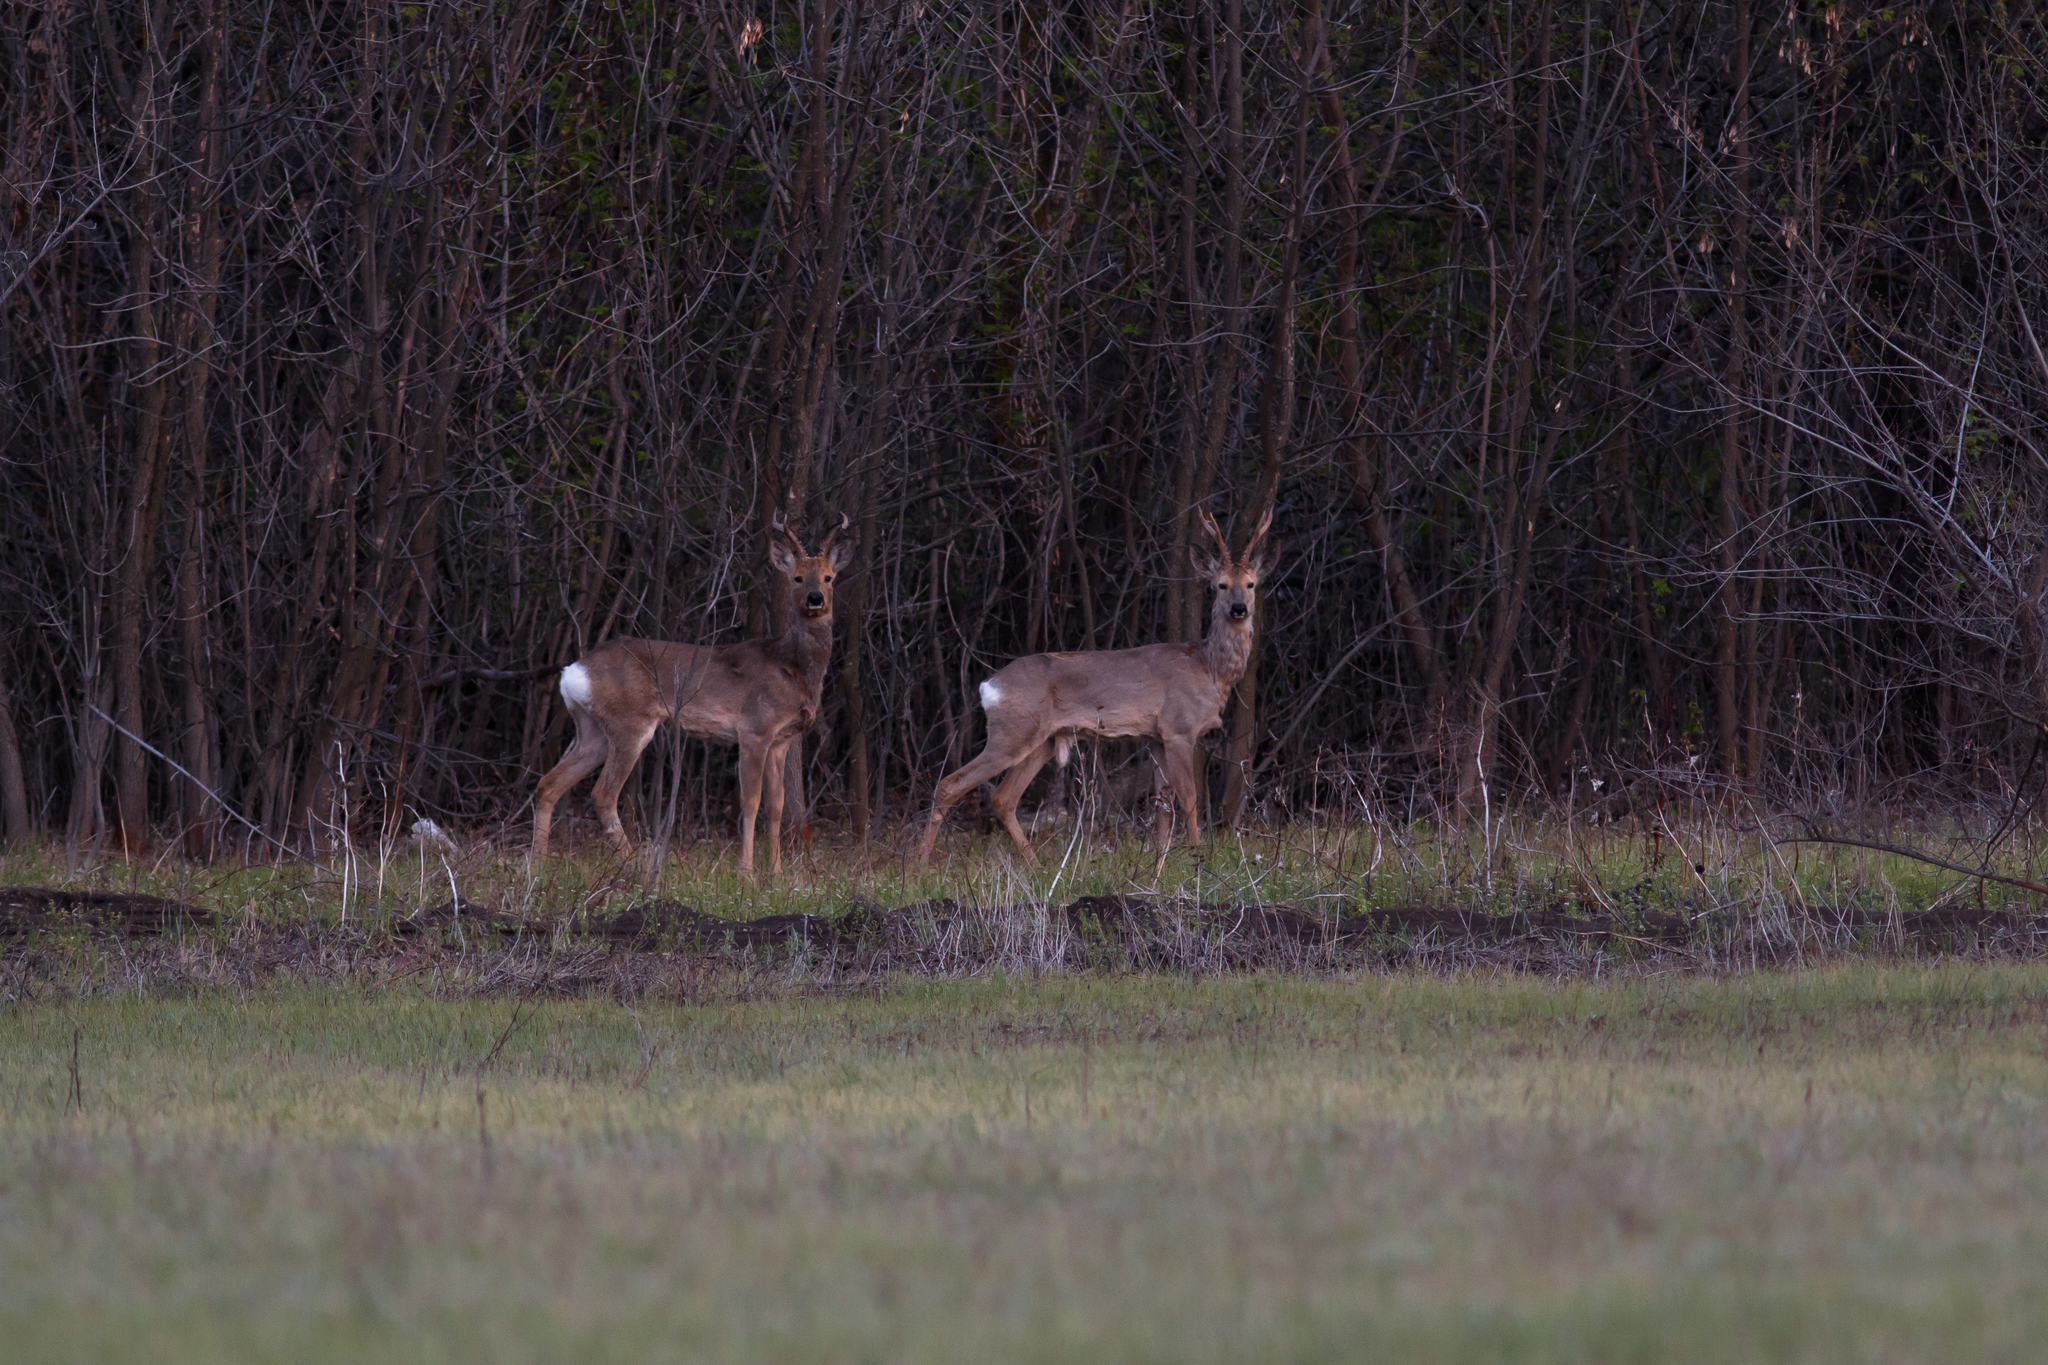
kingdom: Animalia
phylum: Chordata
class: Mammalia
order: Artiodactyla
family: Cervidae
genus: Capreolus
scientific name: Capreolus pygargus
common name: Siberian roe
